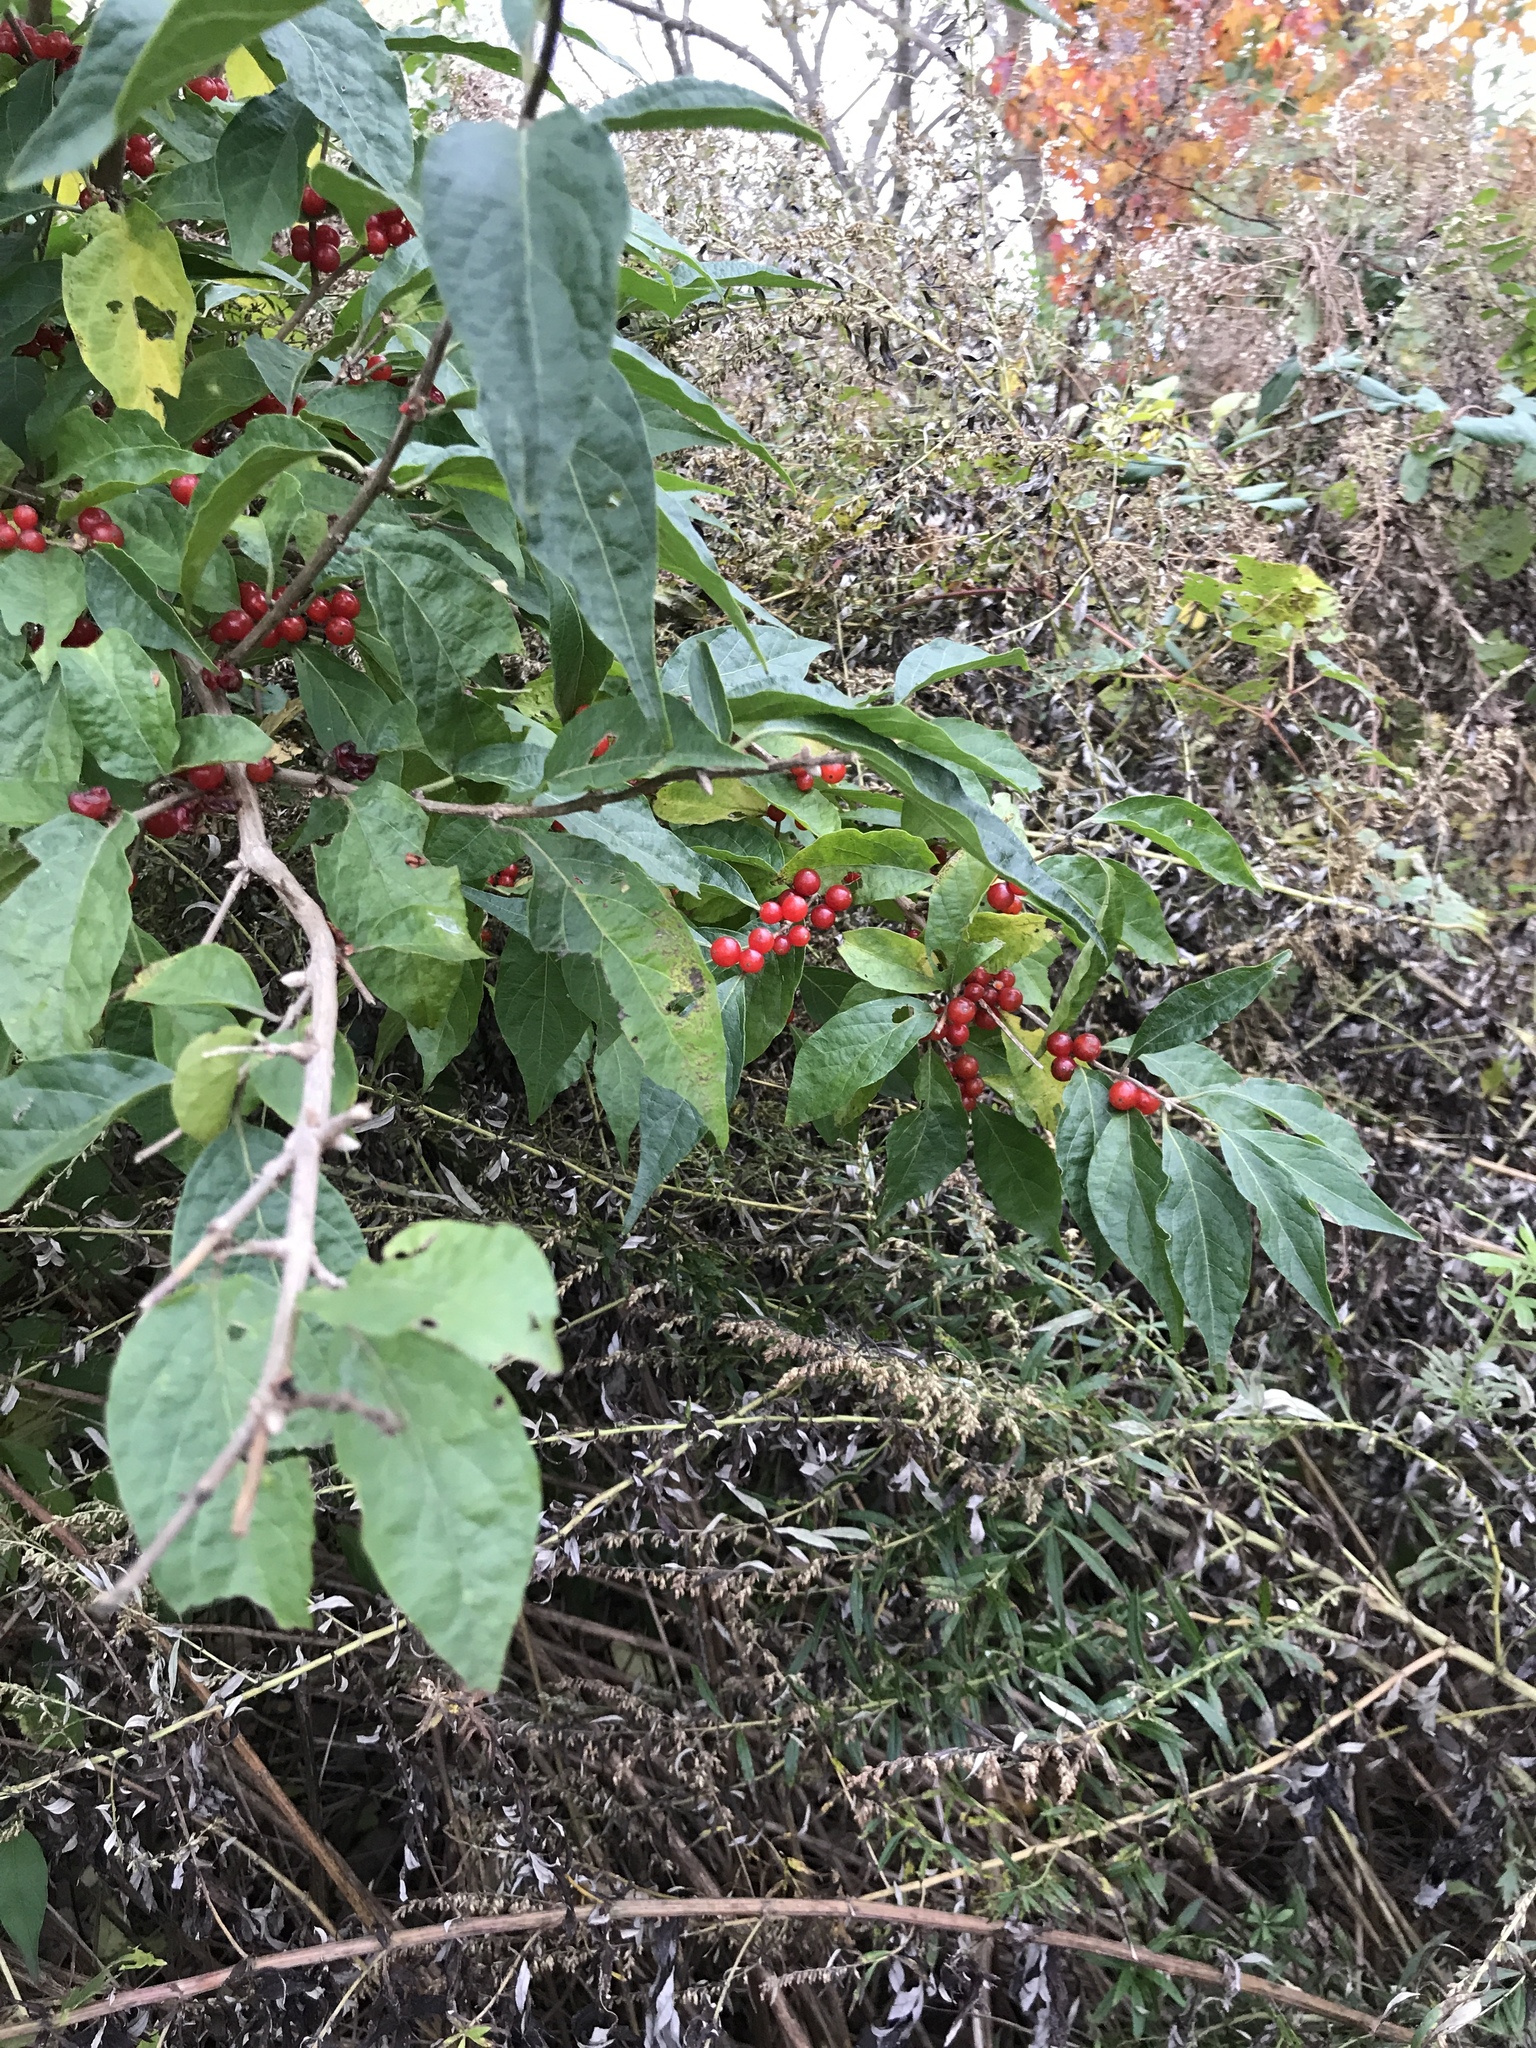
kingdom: Plantae
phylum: Tracheophyta
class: Magnoliopsida
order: Dipsacales
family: Caprifoliaceae
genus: Lonicera
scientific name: Lonicera maackii
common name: Amur honeysuckle
